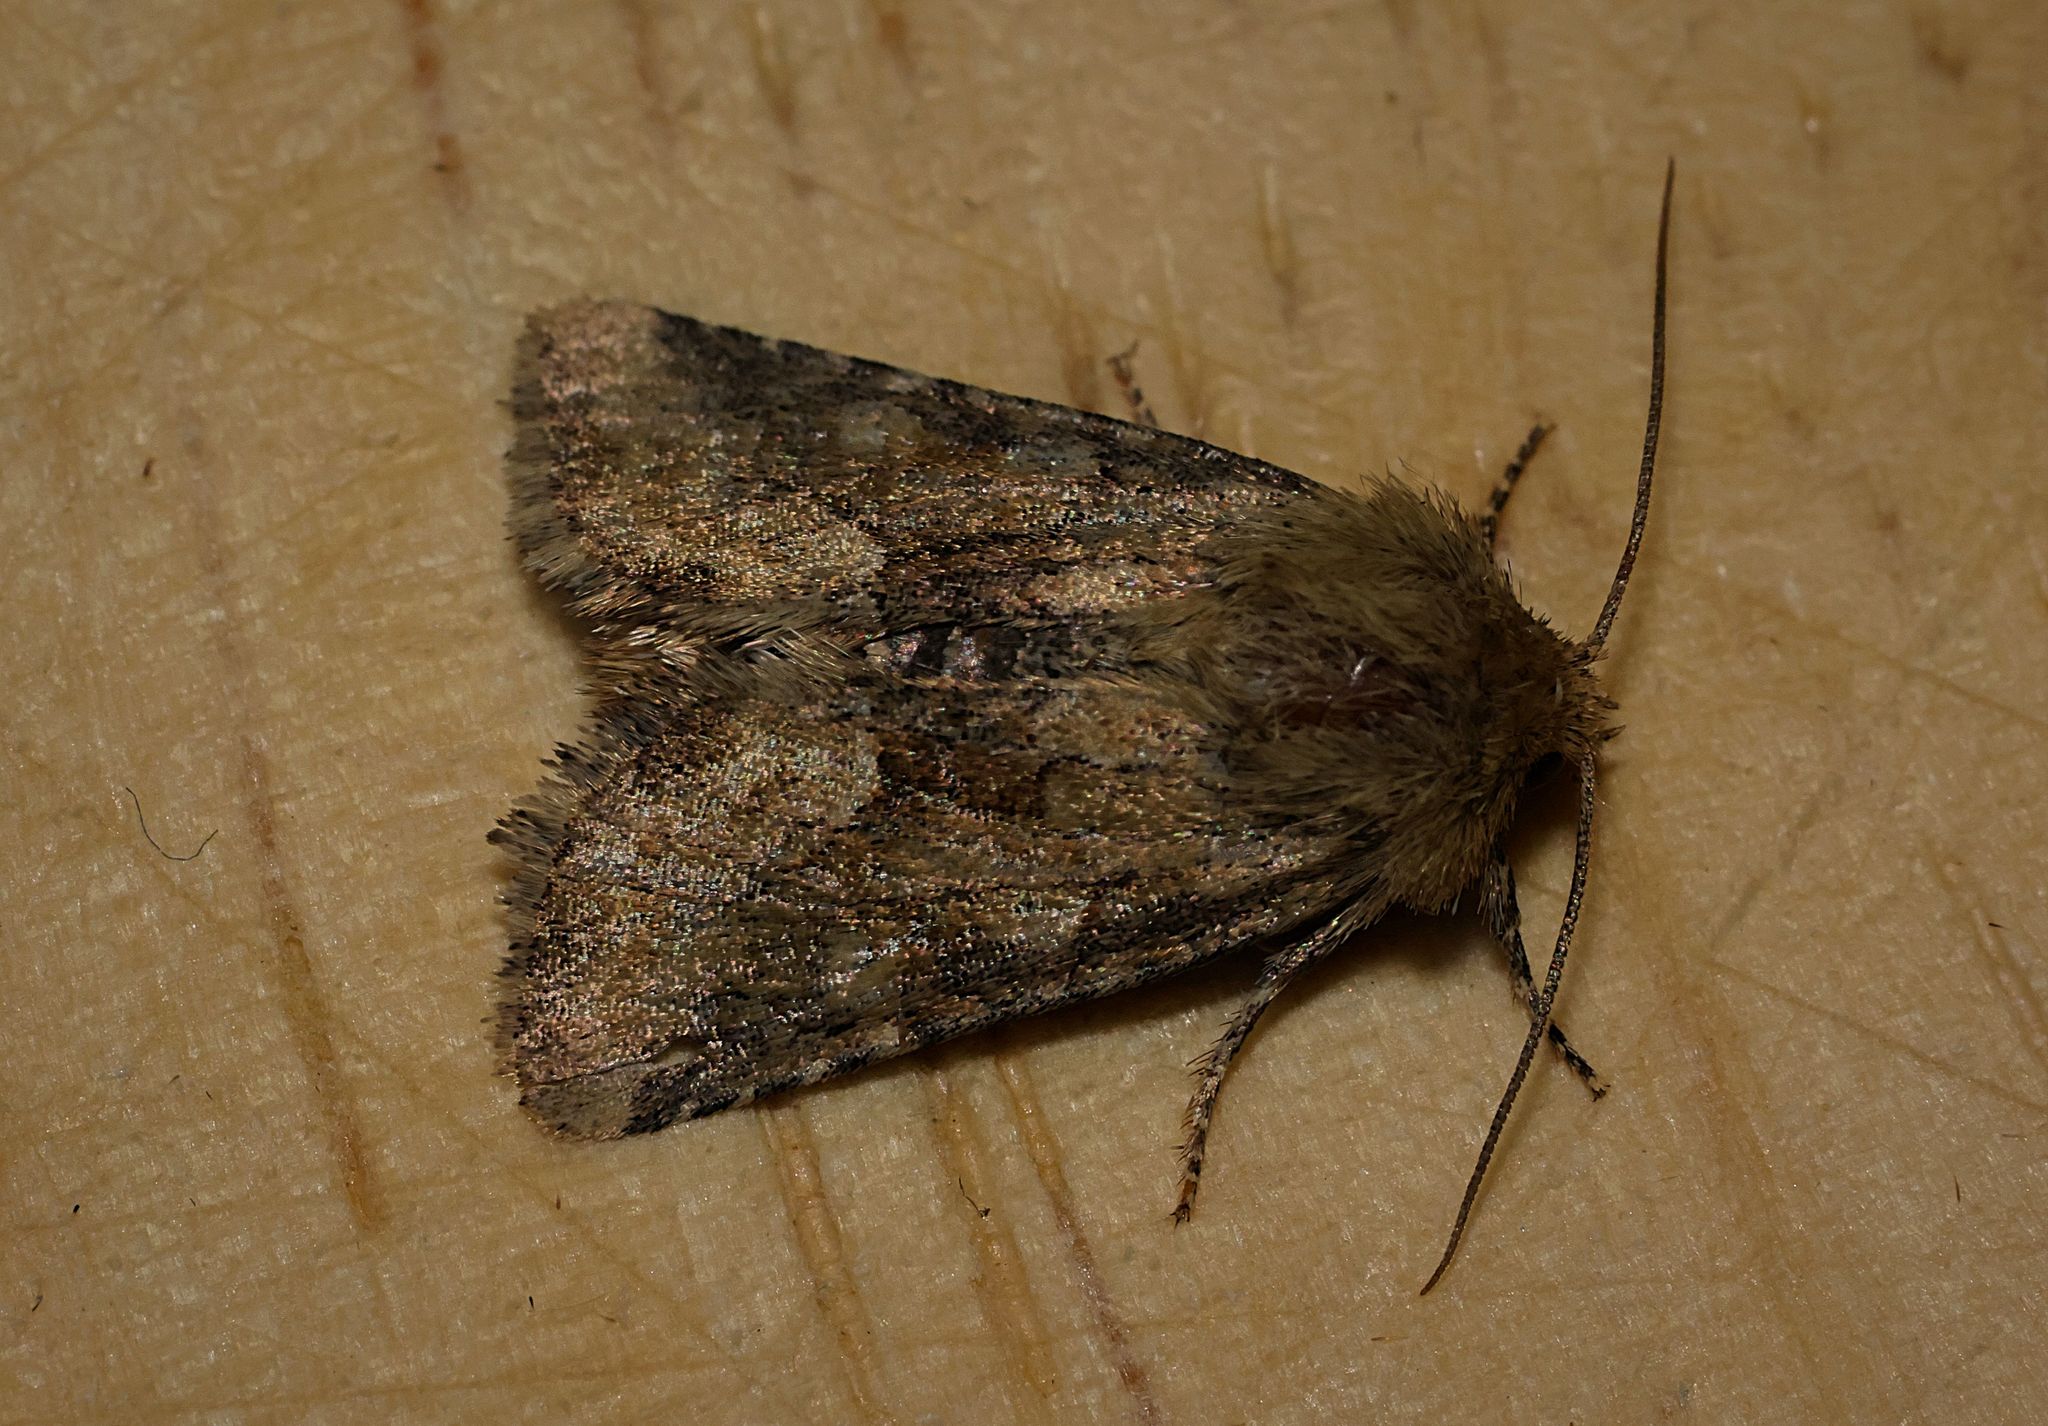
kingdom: Animalia
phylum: Arthropoda
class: Insecta
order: Lepidoptera
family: Noctuidae
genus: Oligia
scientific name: Oligia fasciuncula
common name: Middle-barred minor
